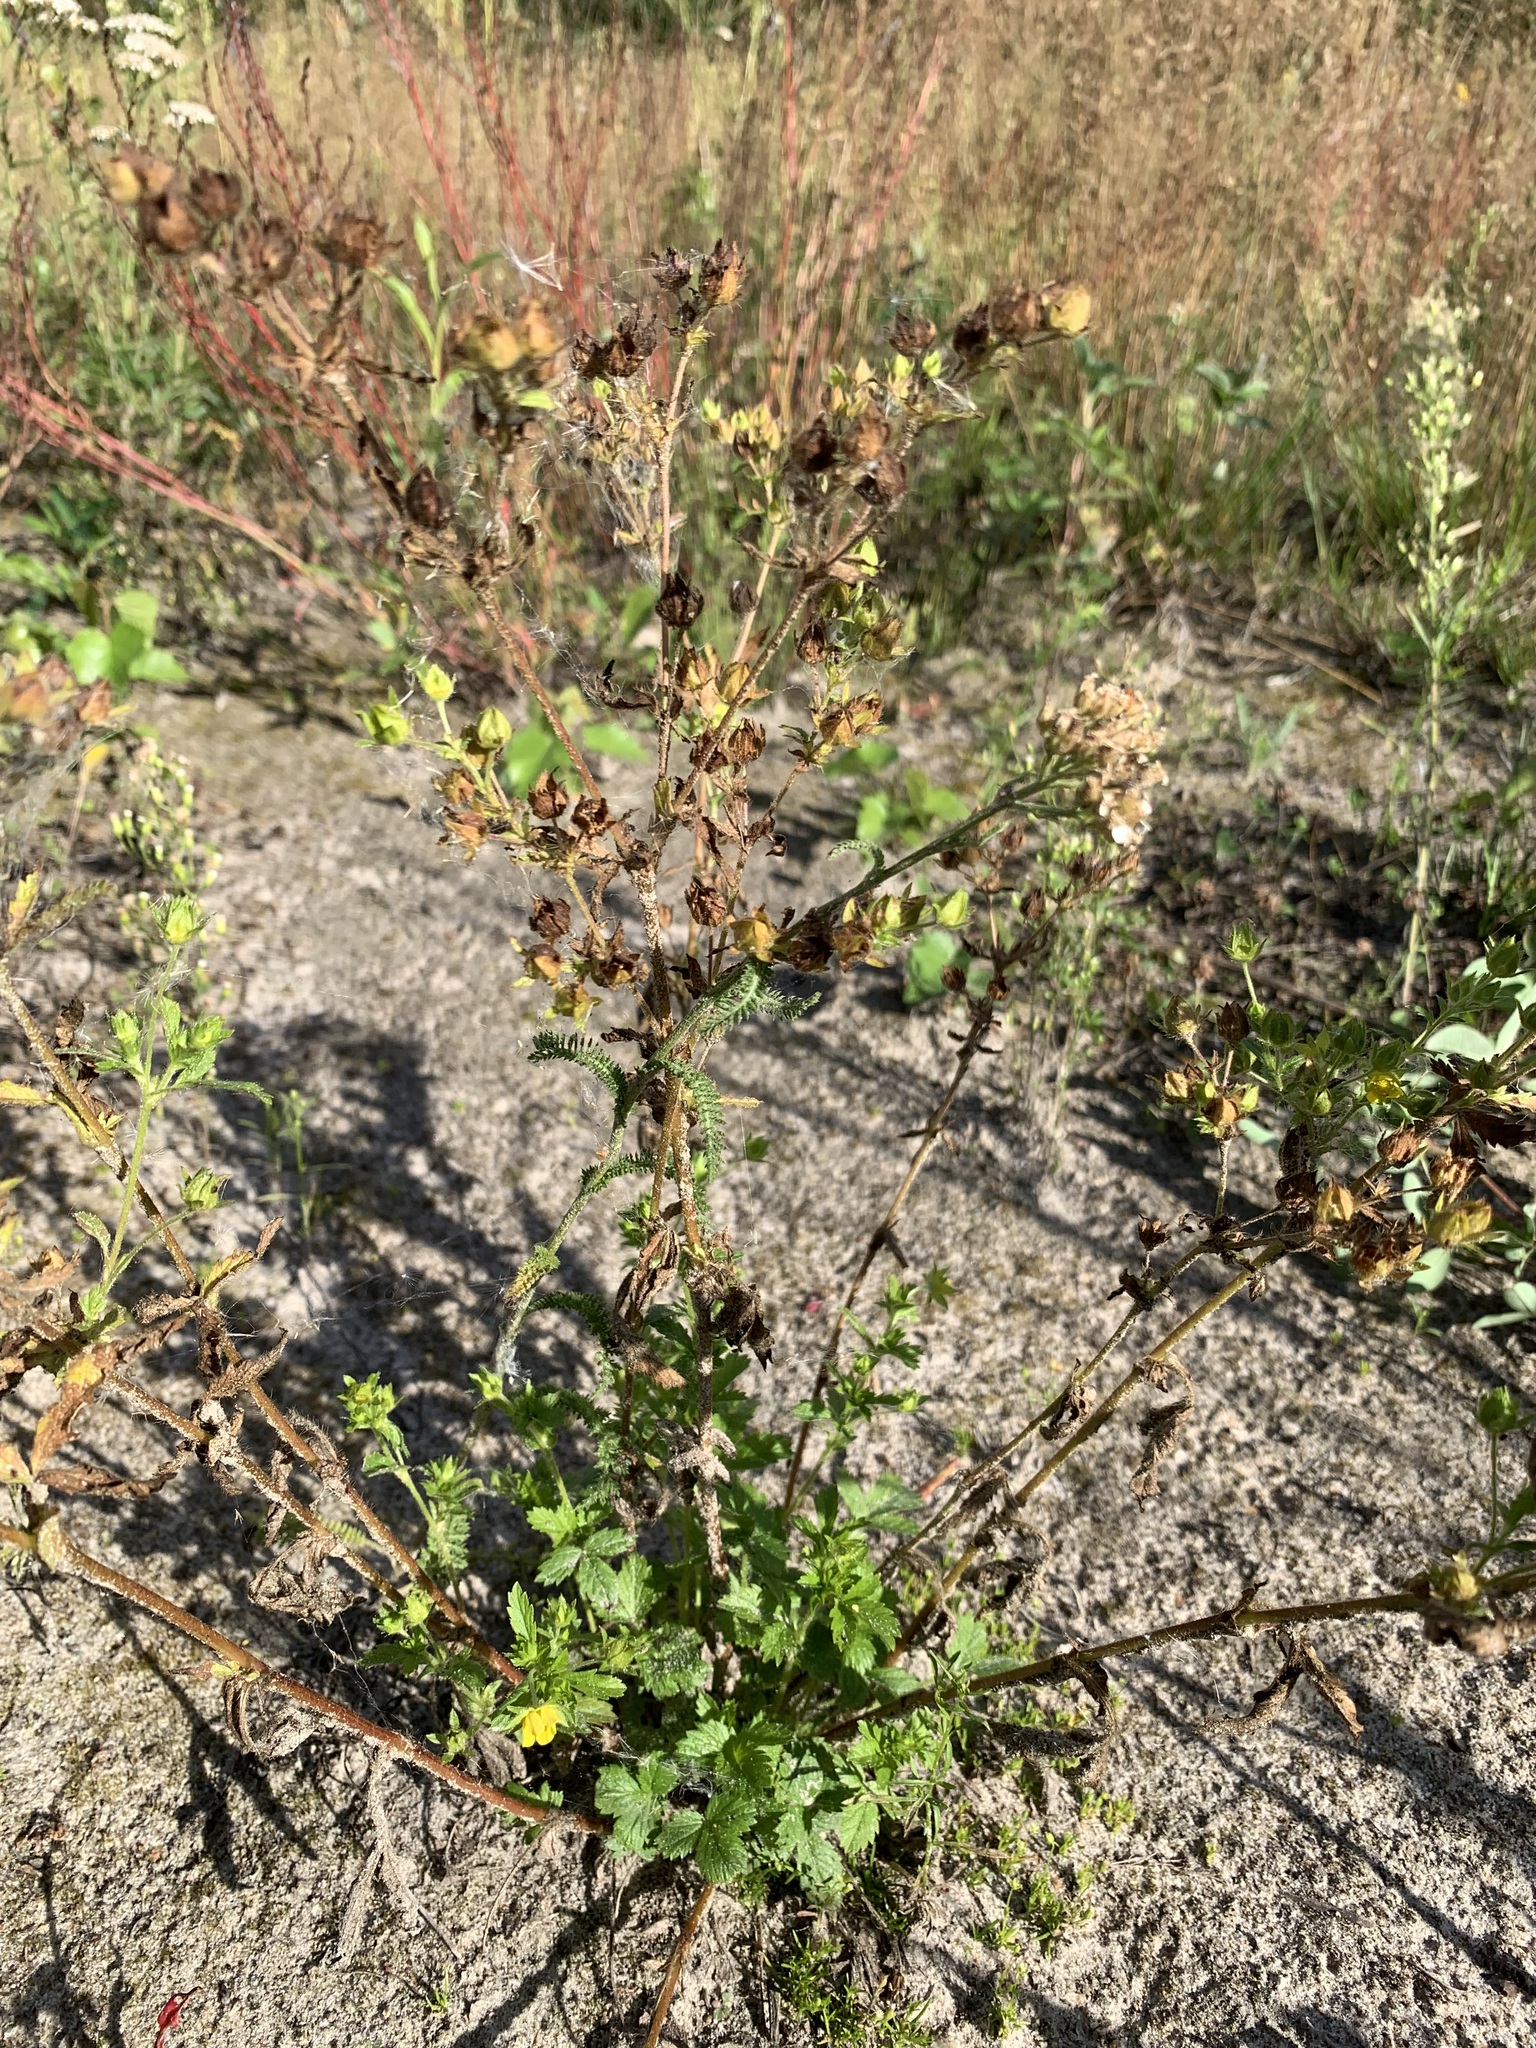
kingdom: Plantae
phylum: Tracheophyta
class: Magnoliopsida
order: Rosales
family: Rosaceae
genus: Potentilla
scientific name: Potentilla norvegica
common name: Ternate-leaved cinquefoil
